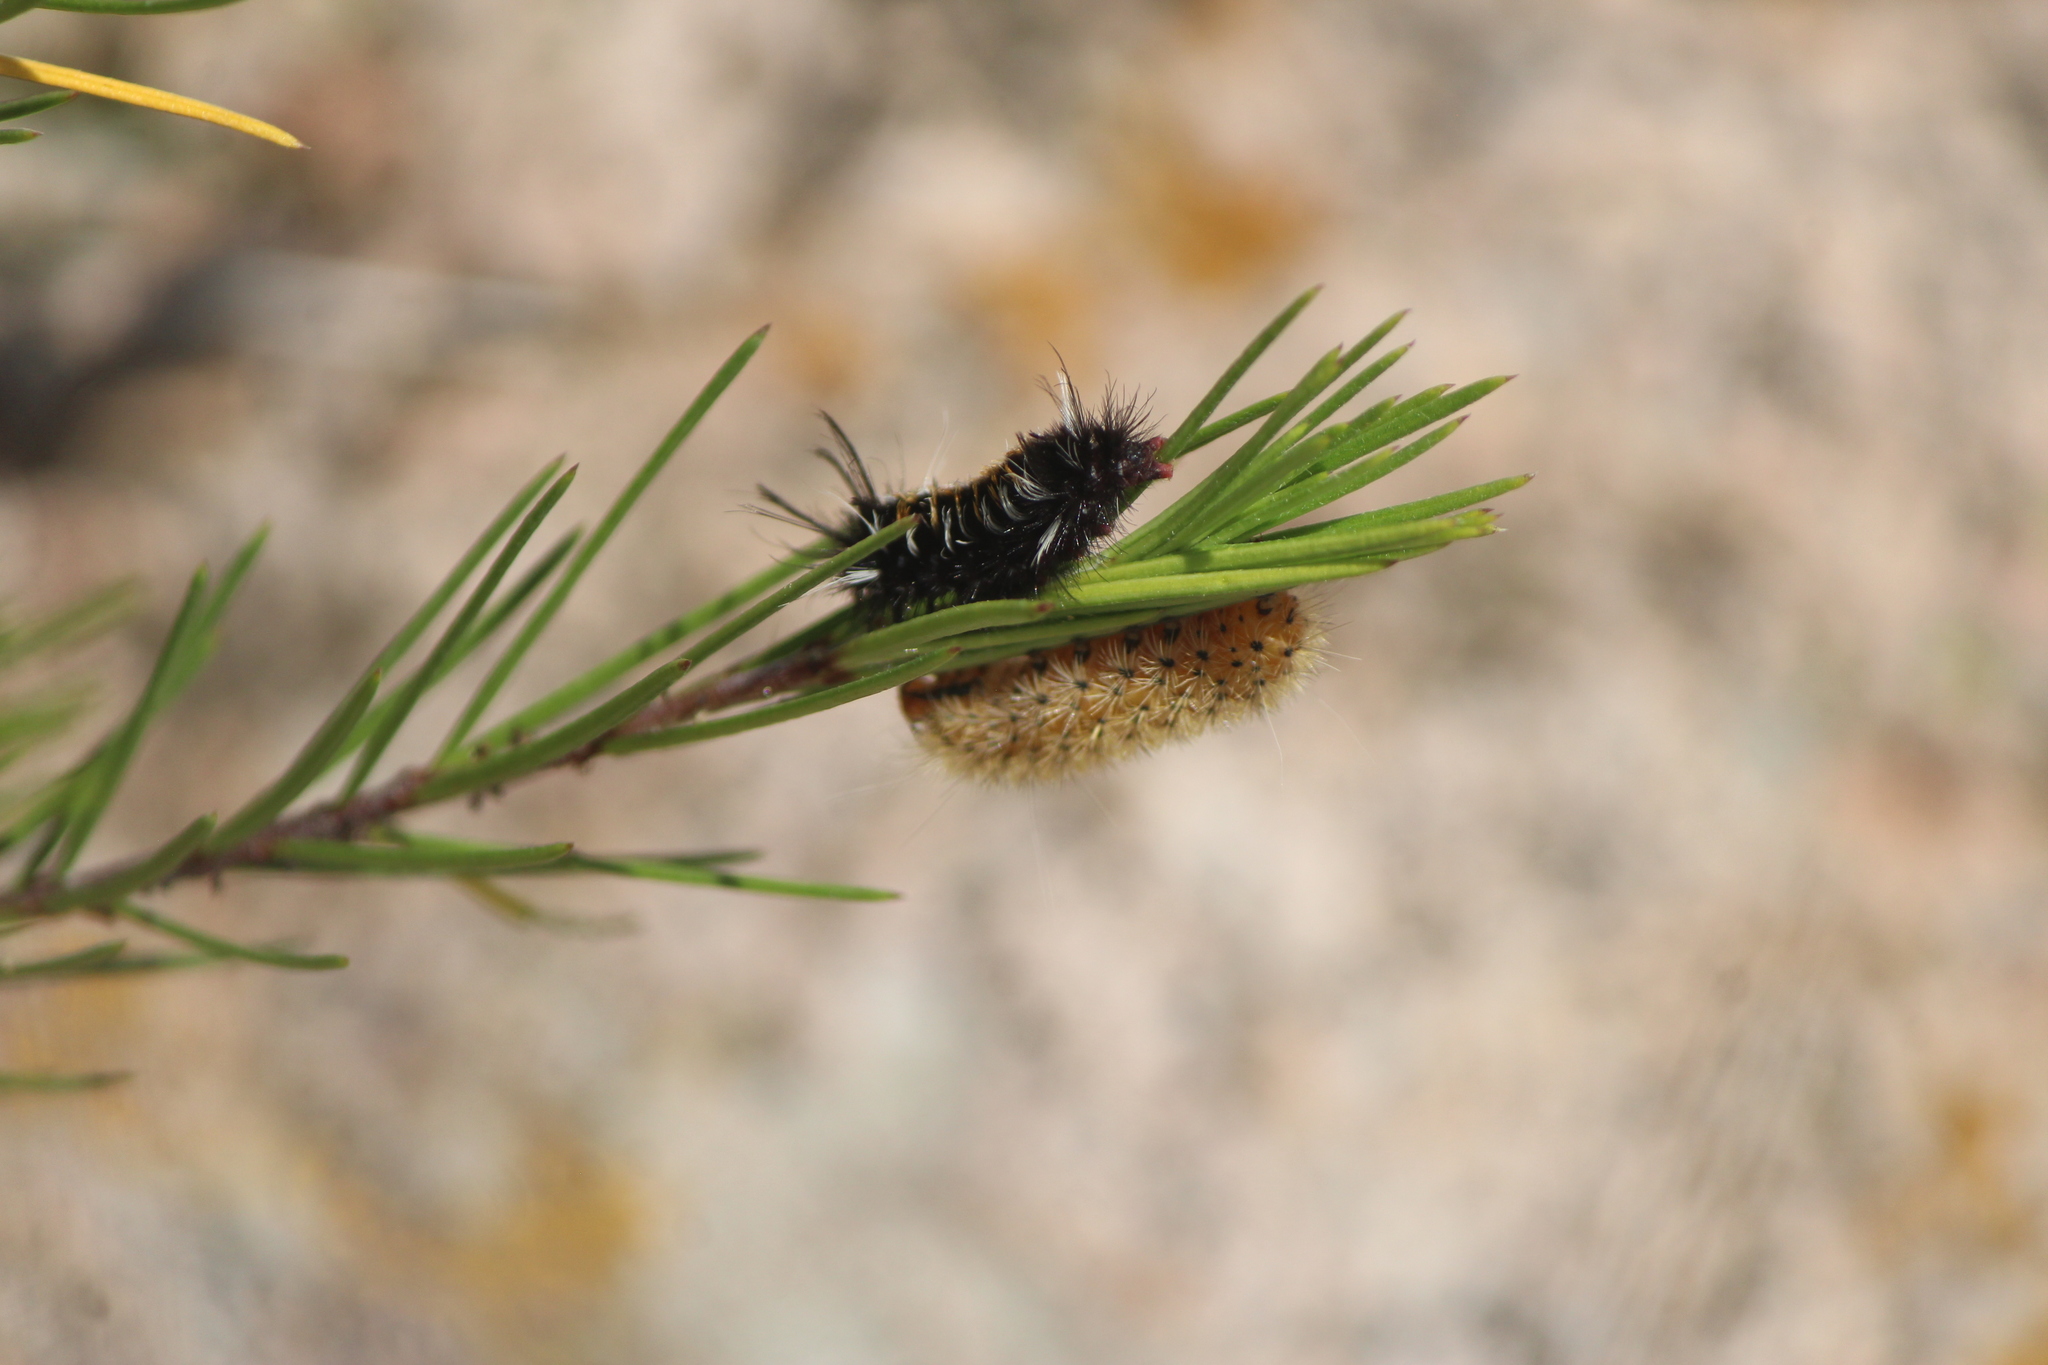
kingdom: Animalia
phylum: Arthropoda
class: Insecta
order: Lepidoptera
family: Erebidae
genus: Lerina
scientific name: Lerina incarnata
